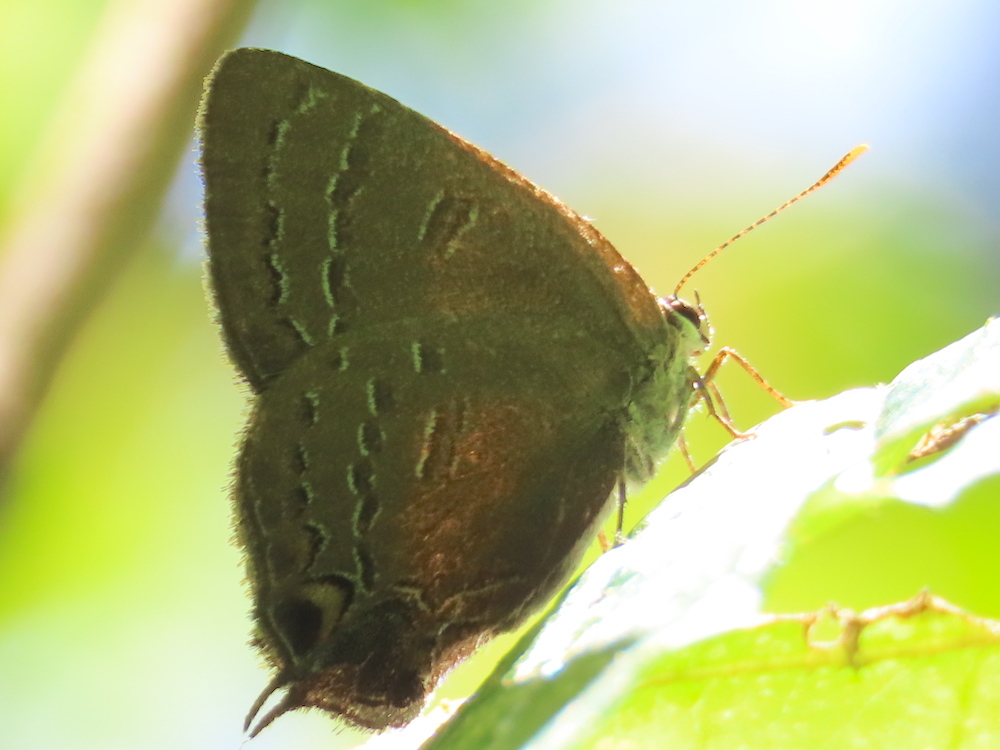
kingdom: Animalia
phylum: Arthropoda
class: Insecta
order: Lepidoptera
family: Lycaenidae
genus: Satyrium
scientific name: Satyrium calanus
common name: Banded hairstreak
